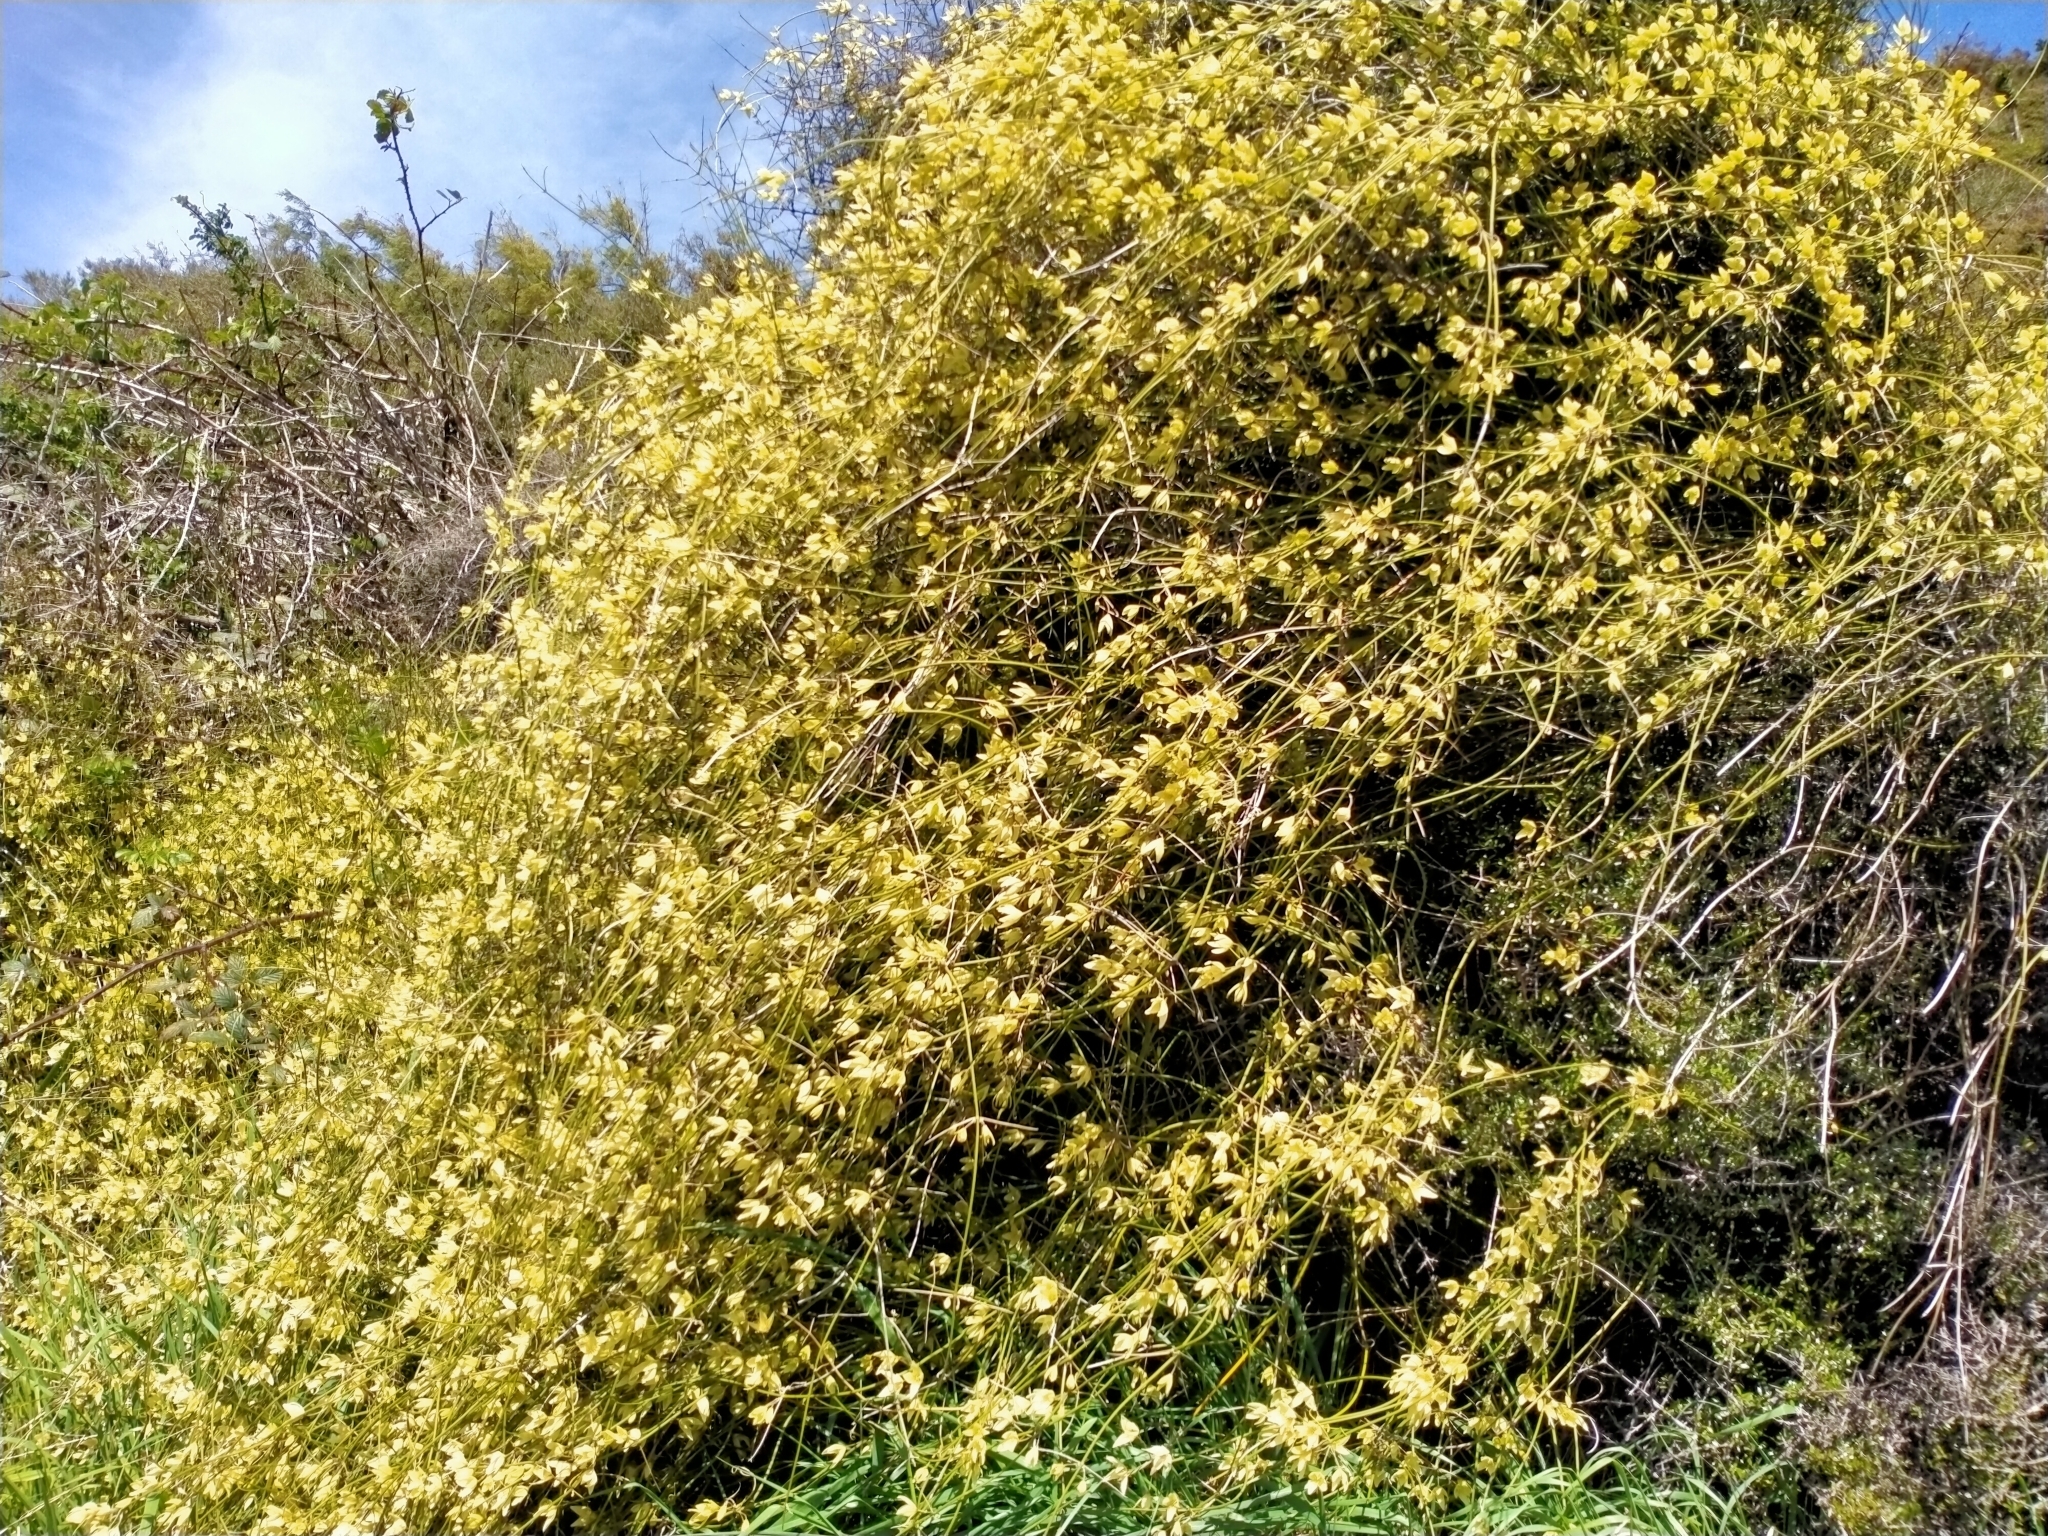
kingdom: Plantae
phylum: Tracheophyta
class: Magnoliopsida
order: Ranunculales
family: Ranunculaceae
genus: Clematis
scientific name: Clematis afoliata
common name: Rush-stem clematis
